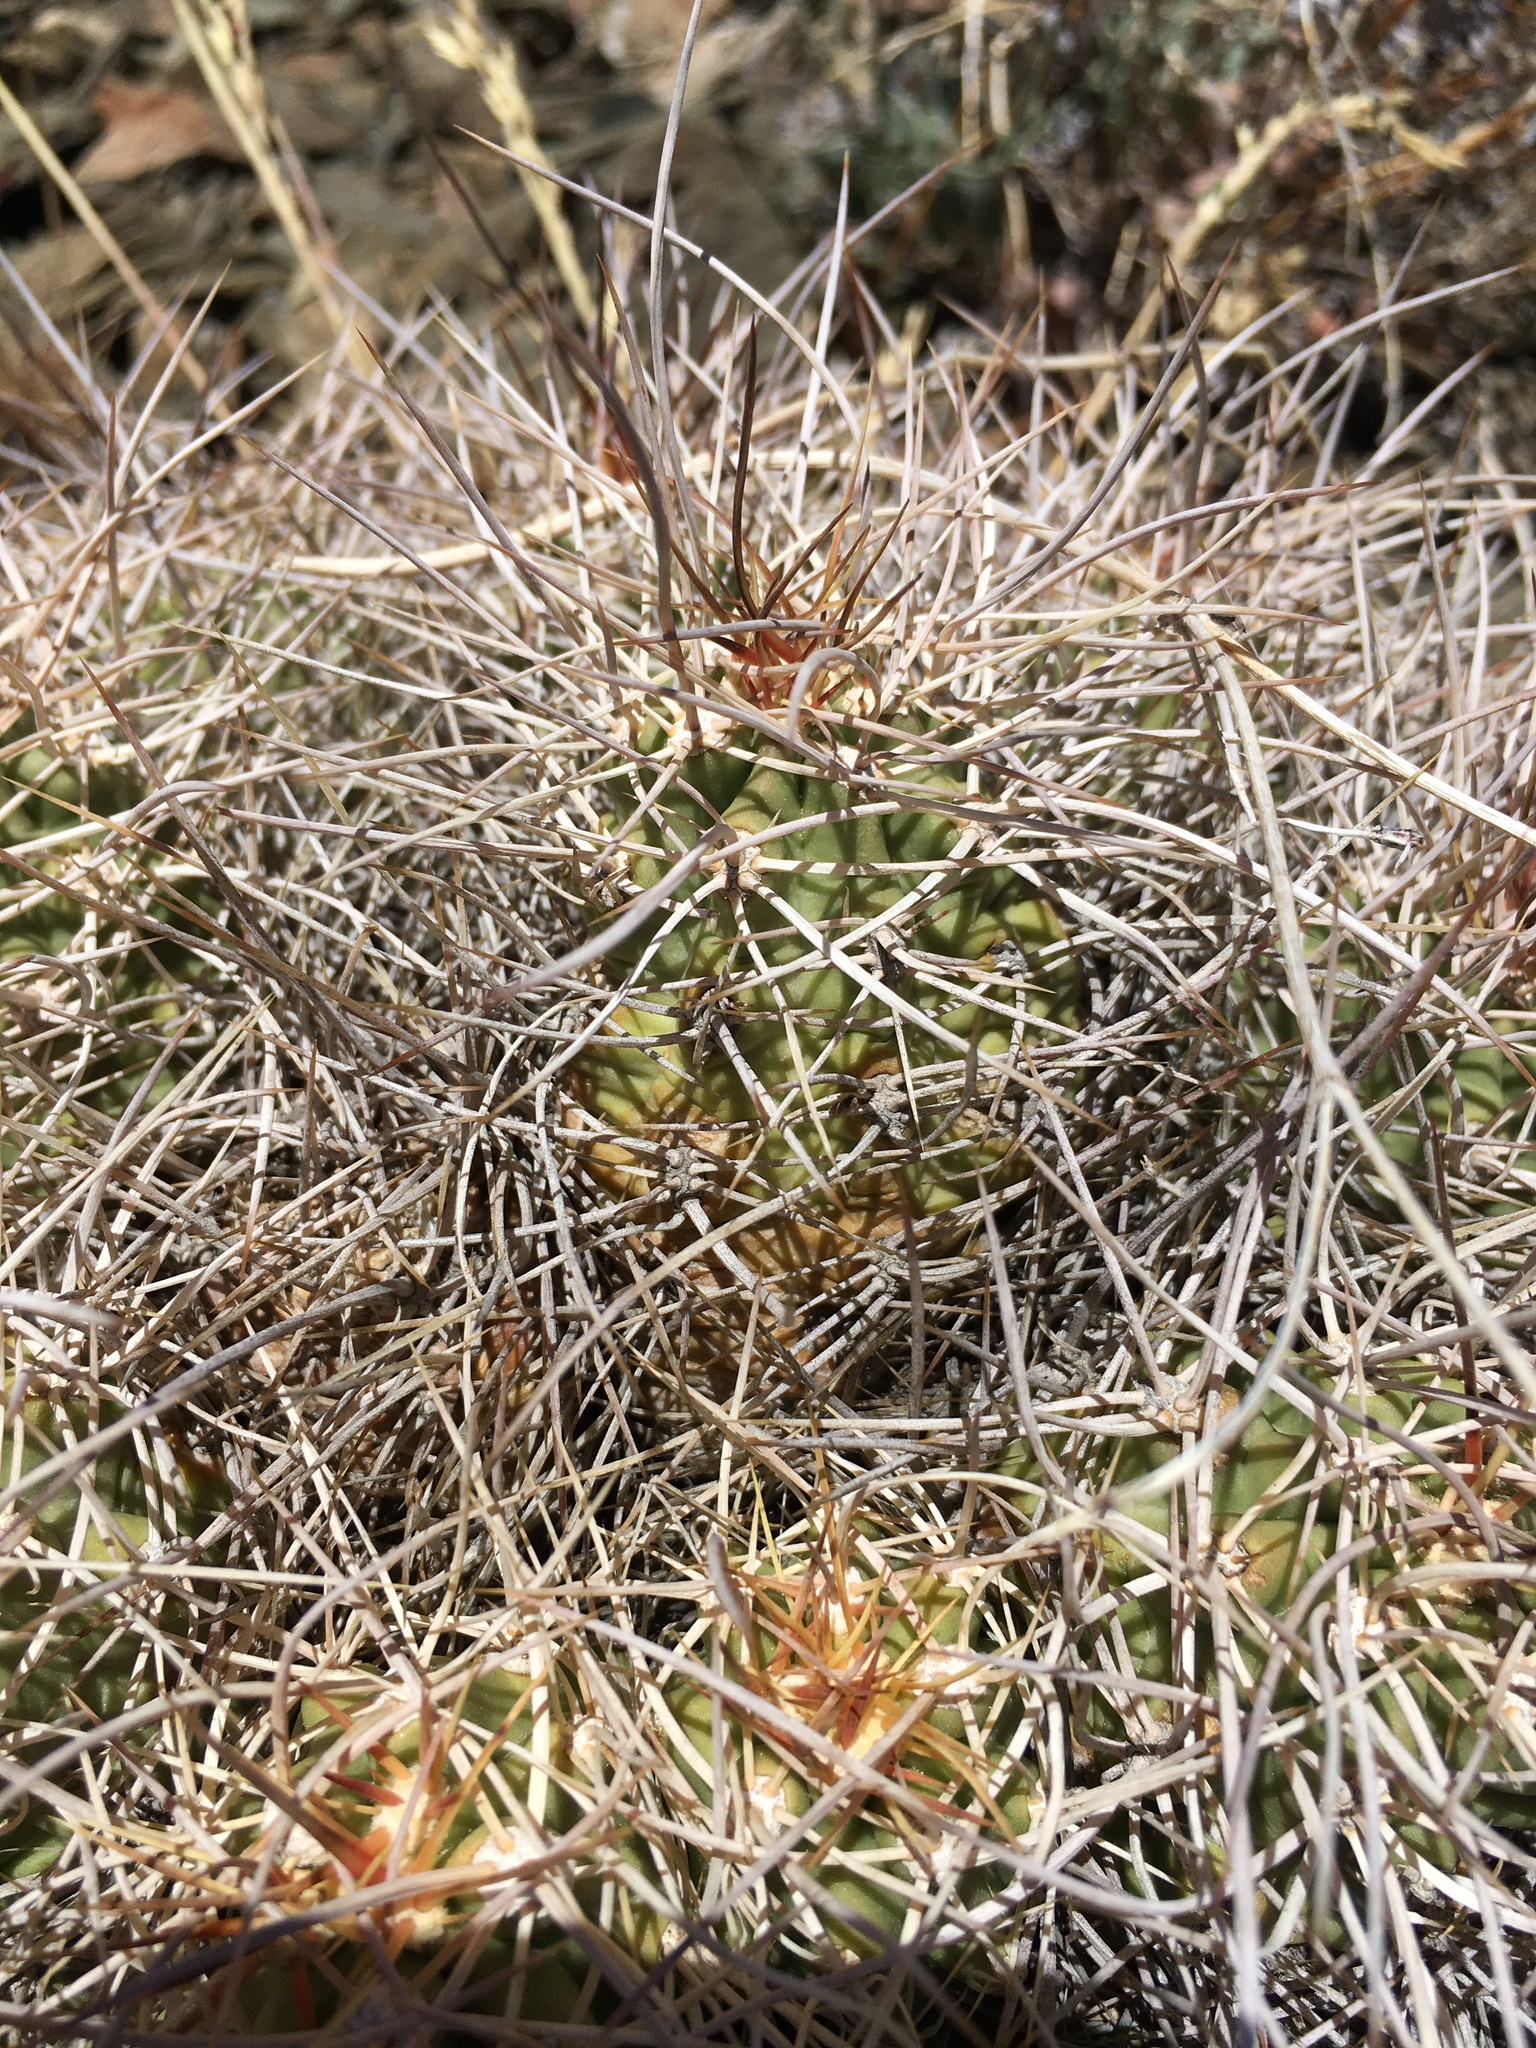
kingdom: Plantae
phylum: Tracheophyta
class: Magnoliopsida
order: Caryophyllales
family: Cactaceae
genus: Echinocereus
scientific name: Echinocereus triglochidiatus
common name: Claretcup hedgehog
